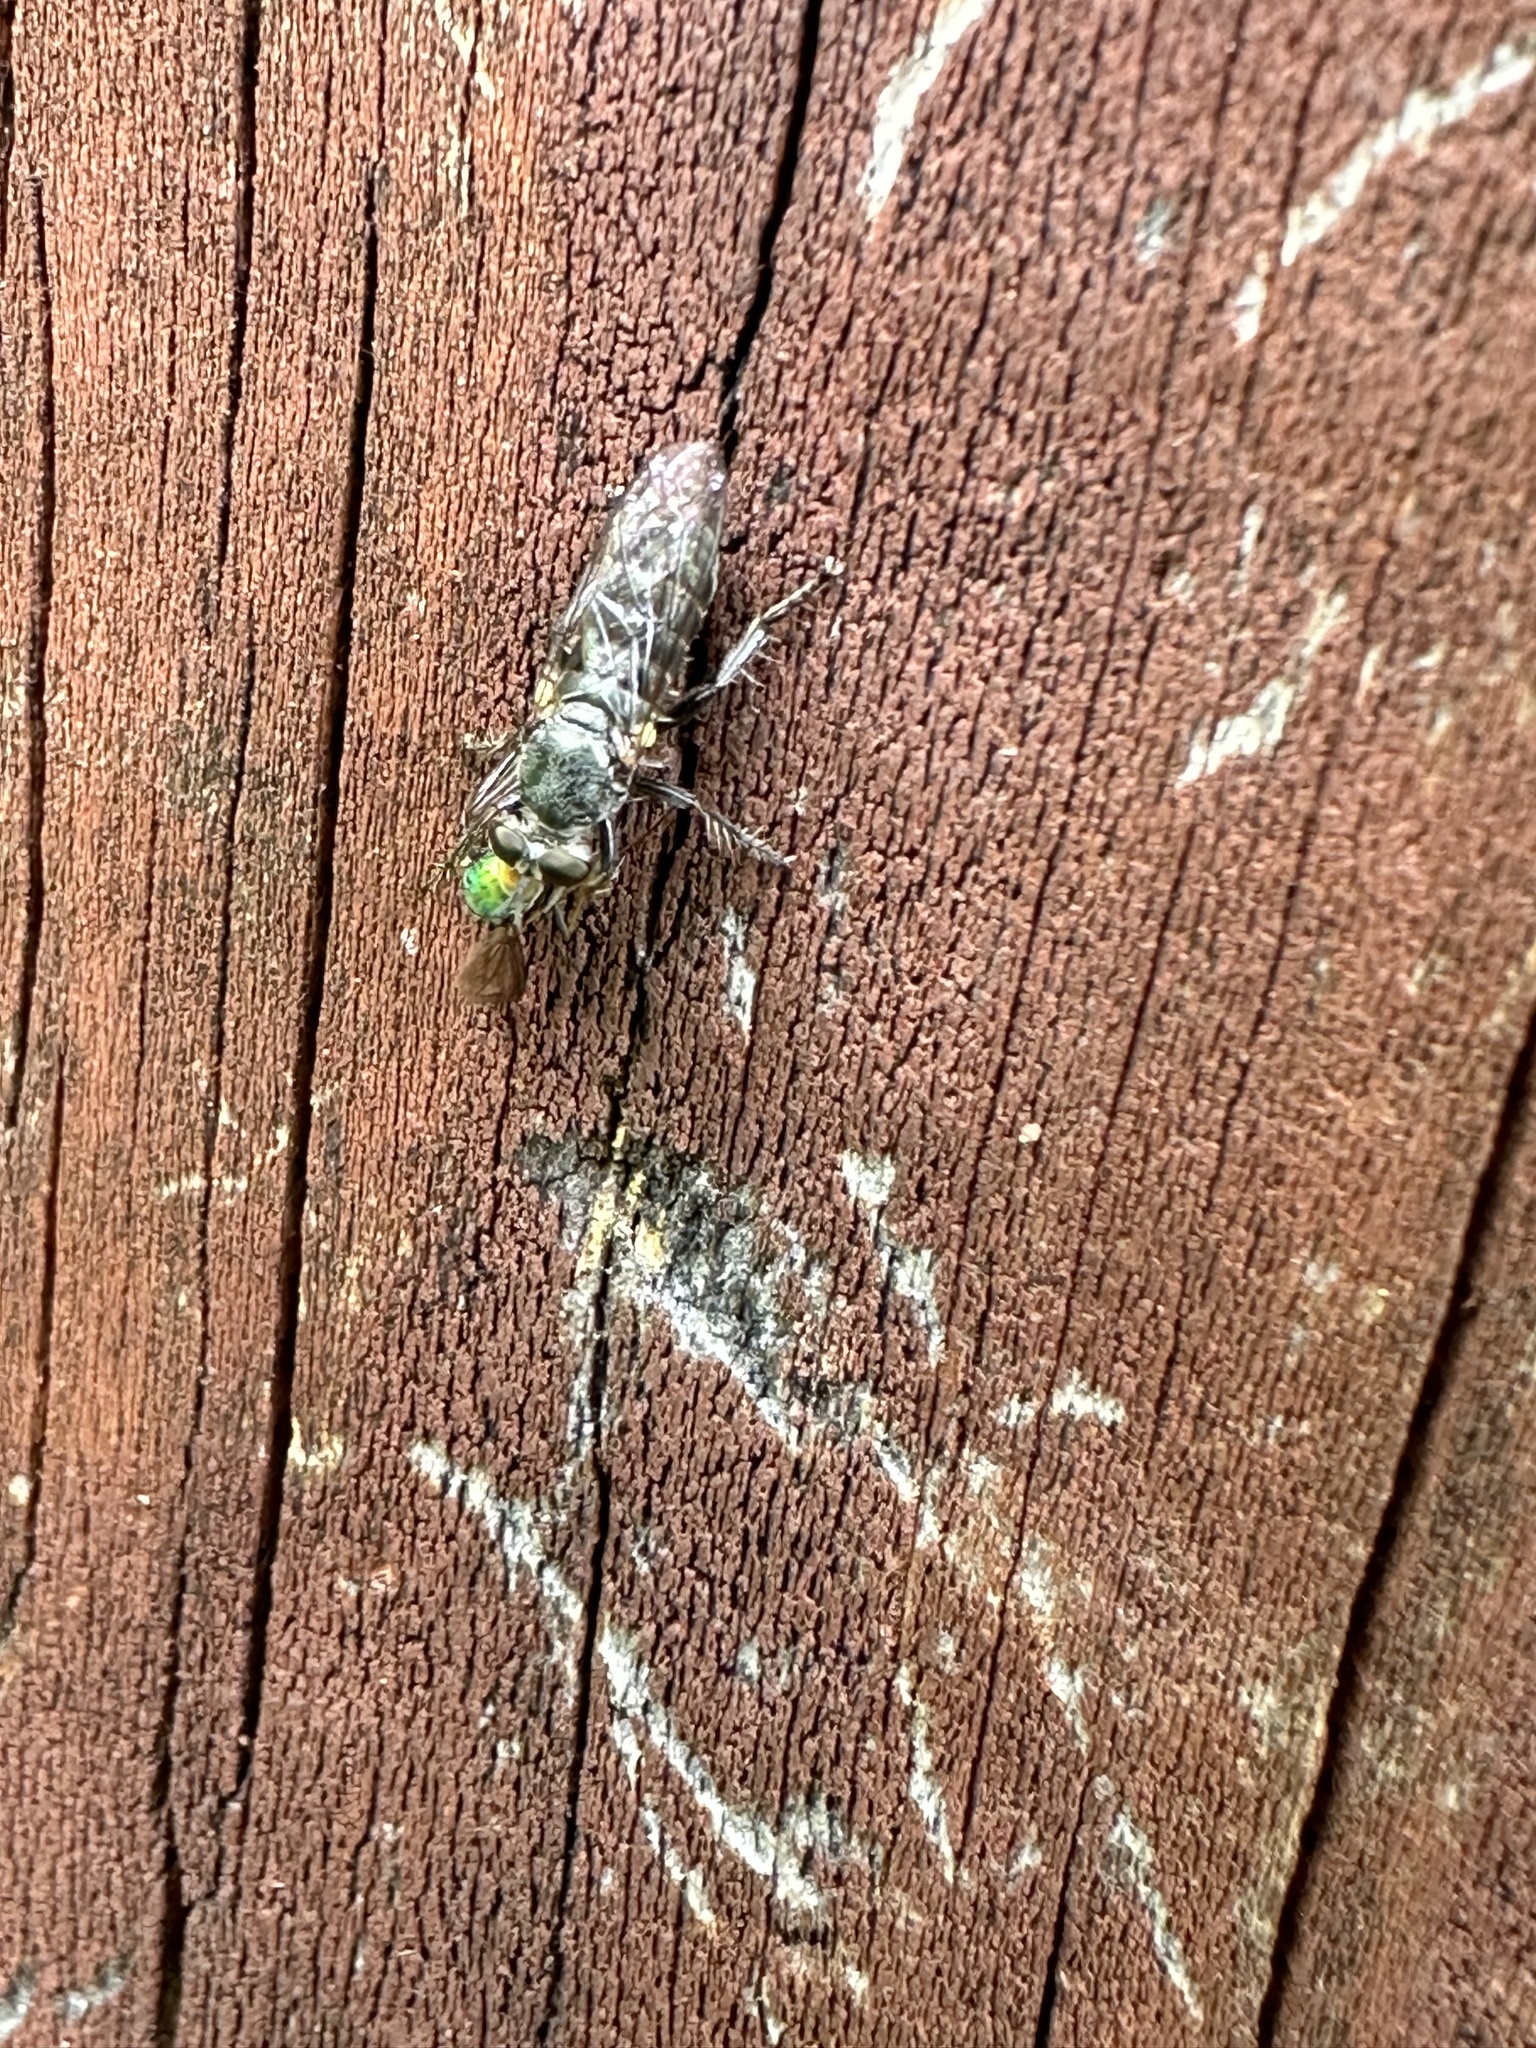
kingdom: Animalia
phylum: Arthropoda
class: Insecta
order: Diptera
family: Asilidae
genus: Atomosia
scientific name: Atomosia puella
